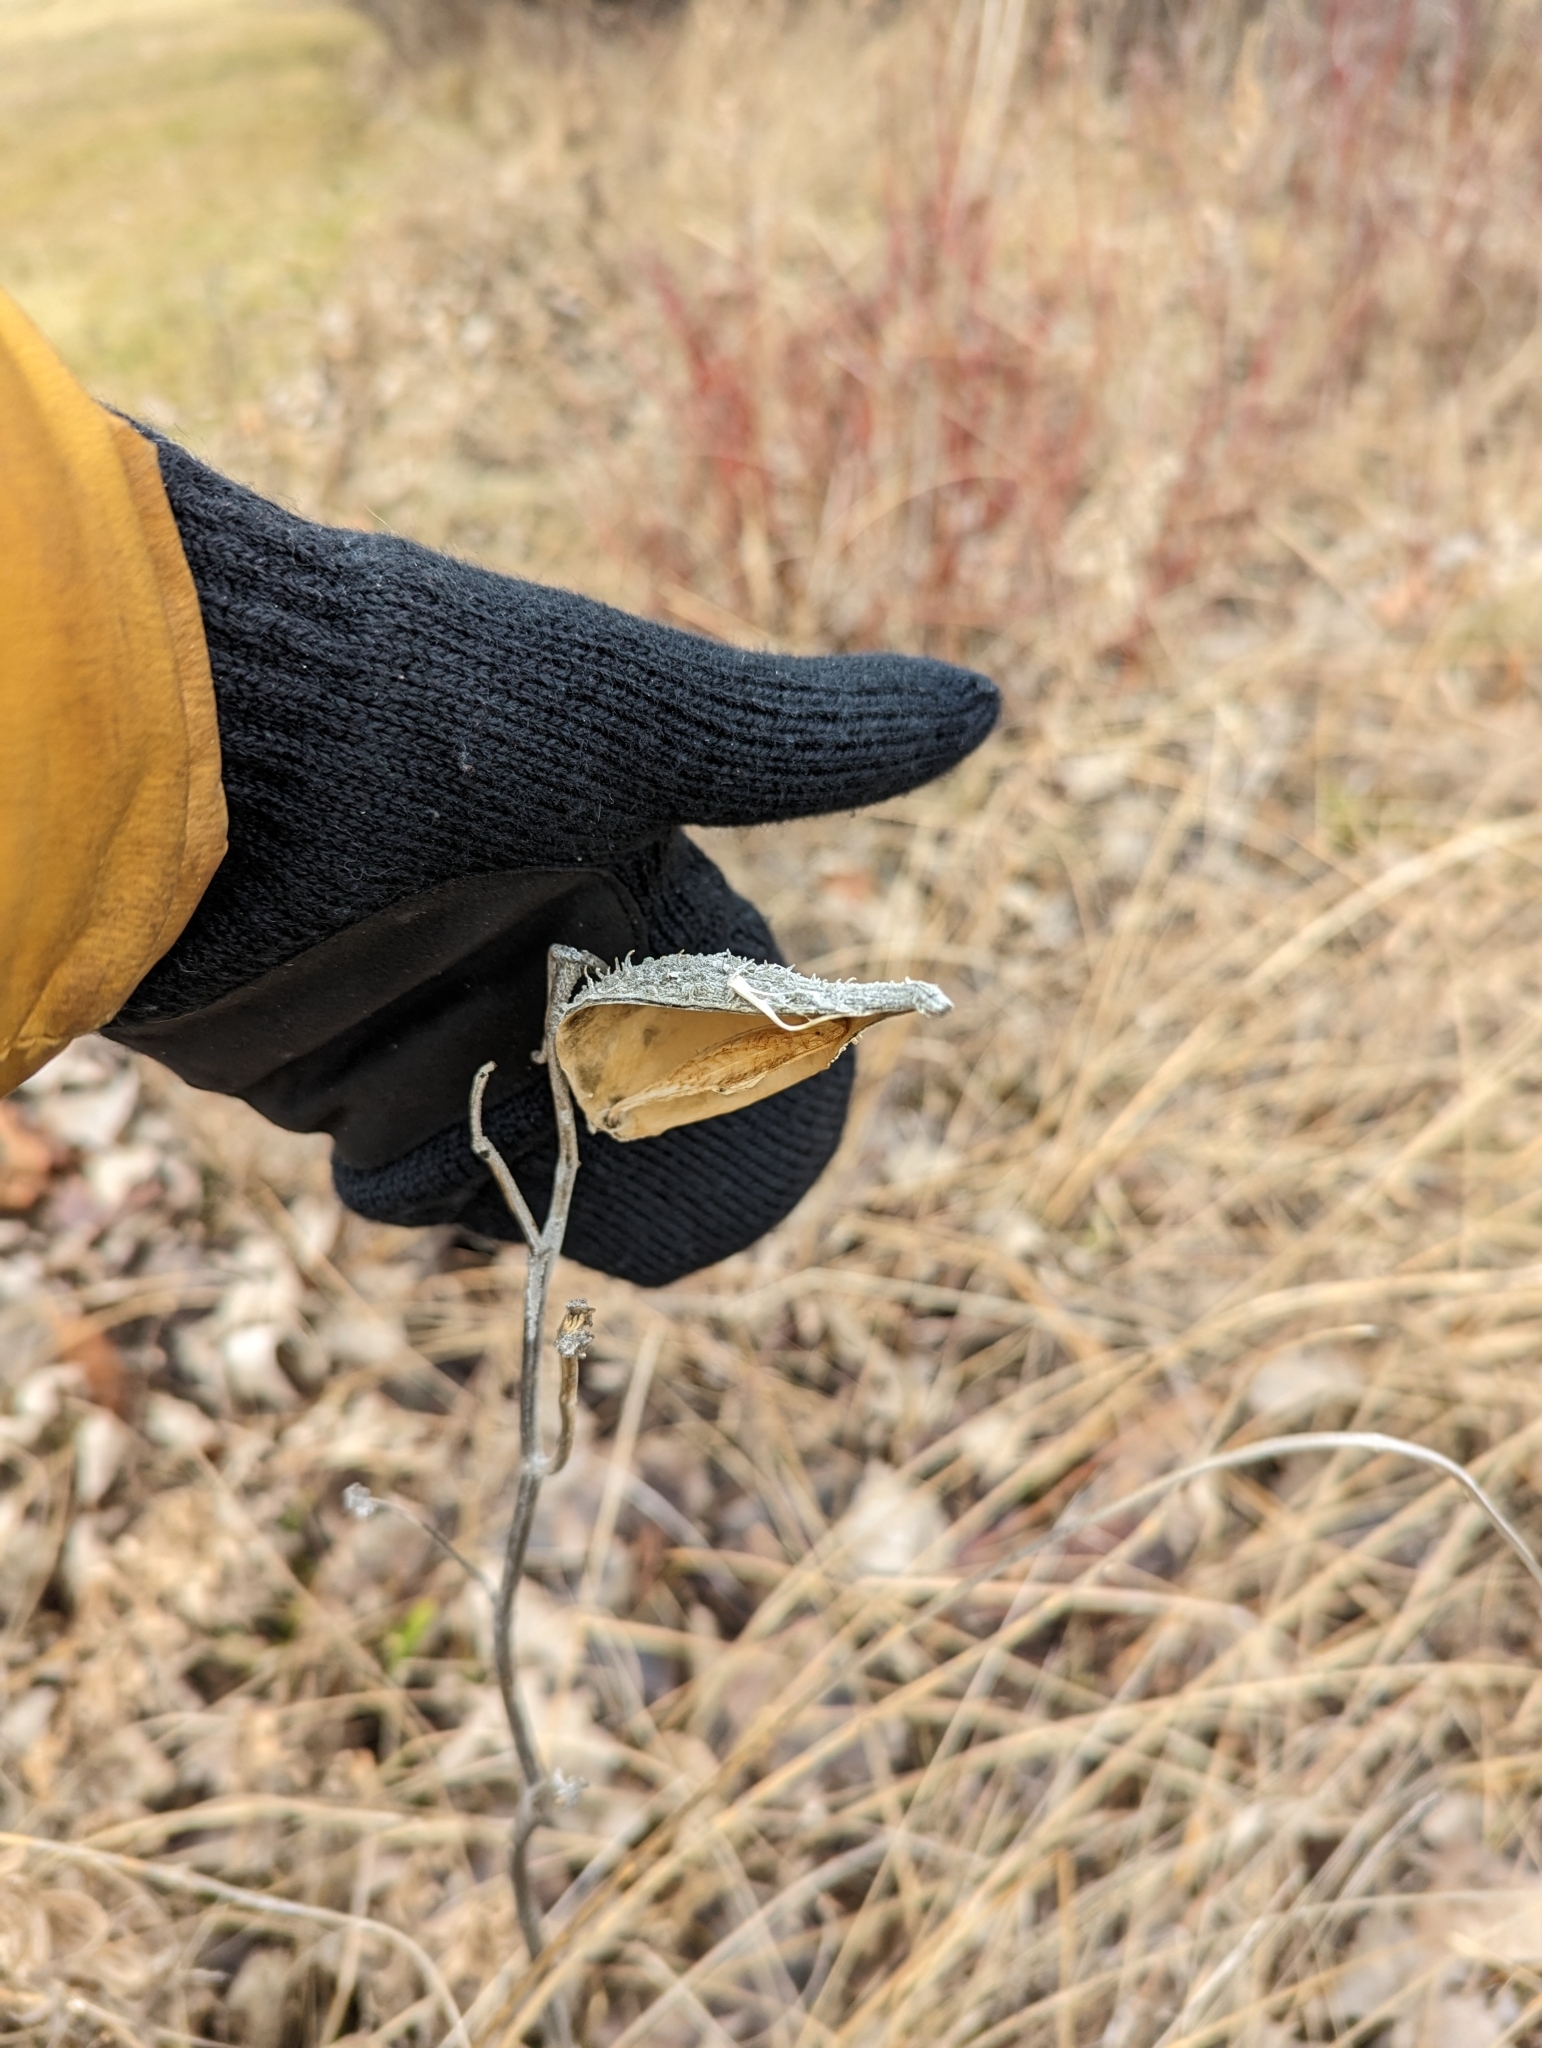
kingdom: Plantae
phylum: Tracheophyta
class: Magnoliopsida
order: Gentianales
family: Apocynaceae
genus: Asclepias
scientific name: Asclepias syriaca
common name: Common milkweed
